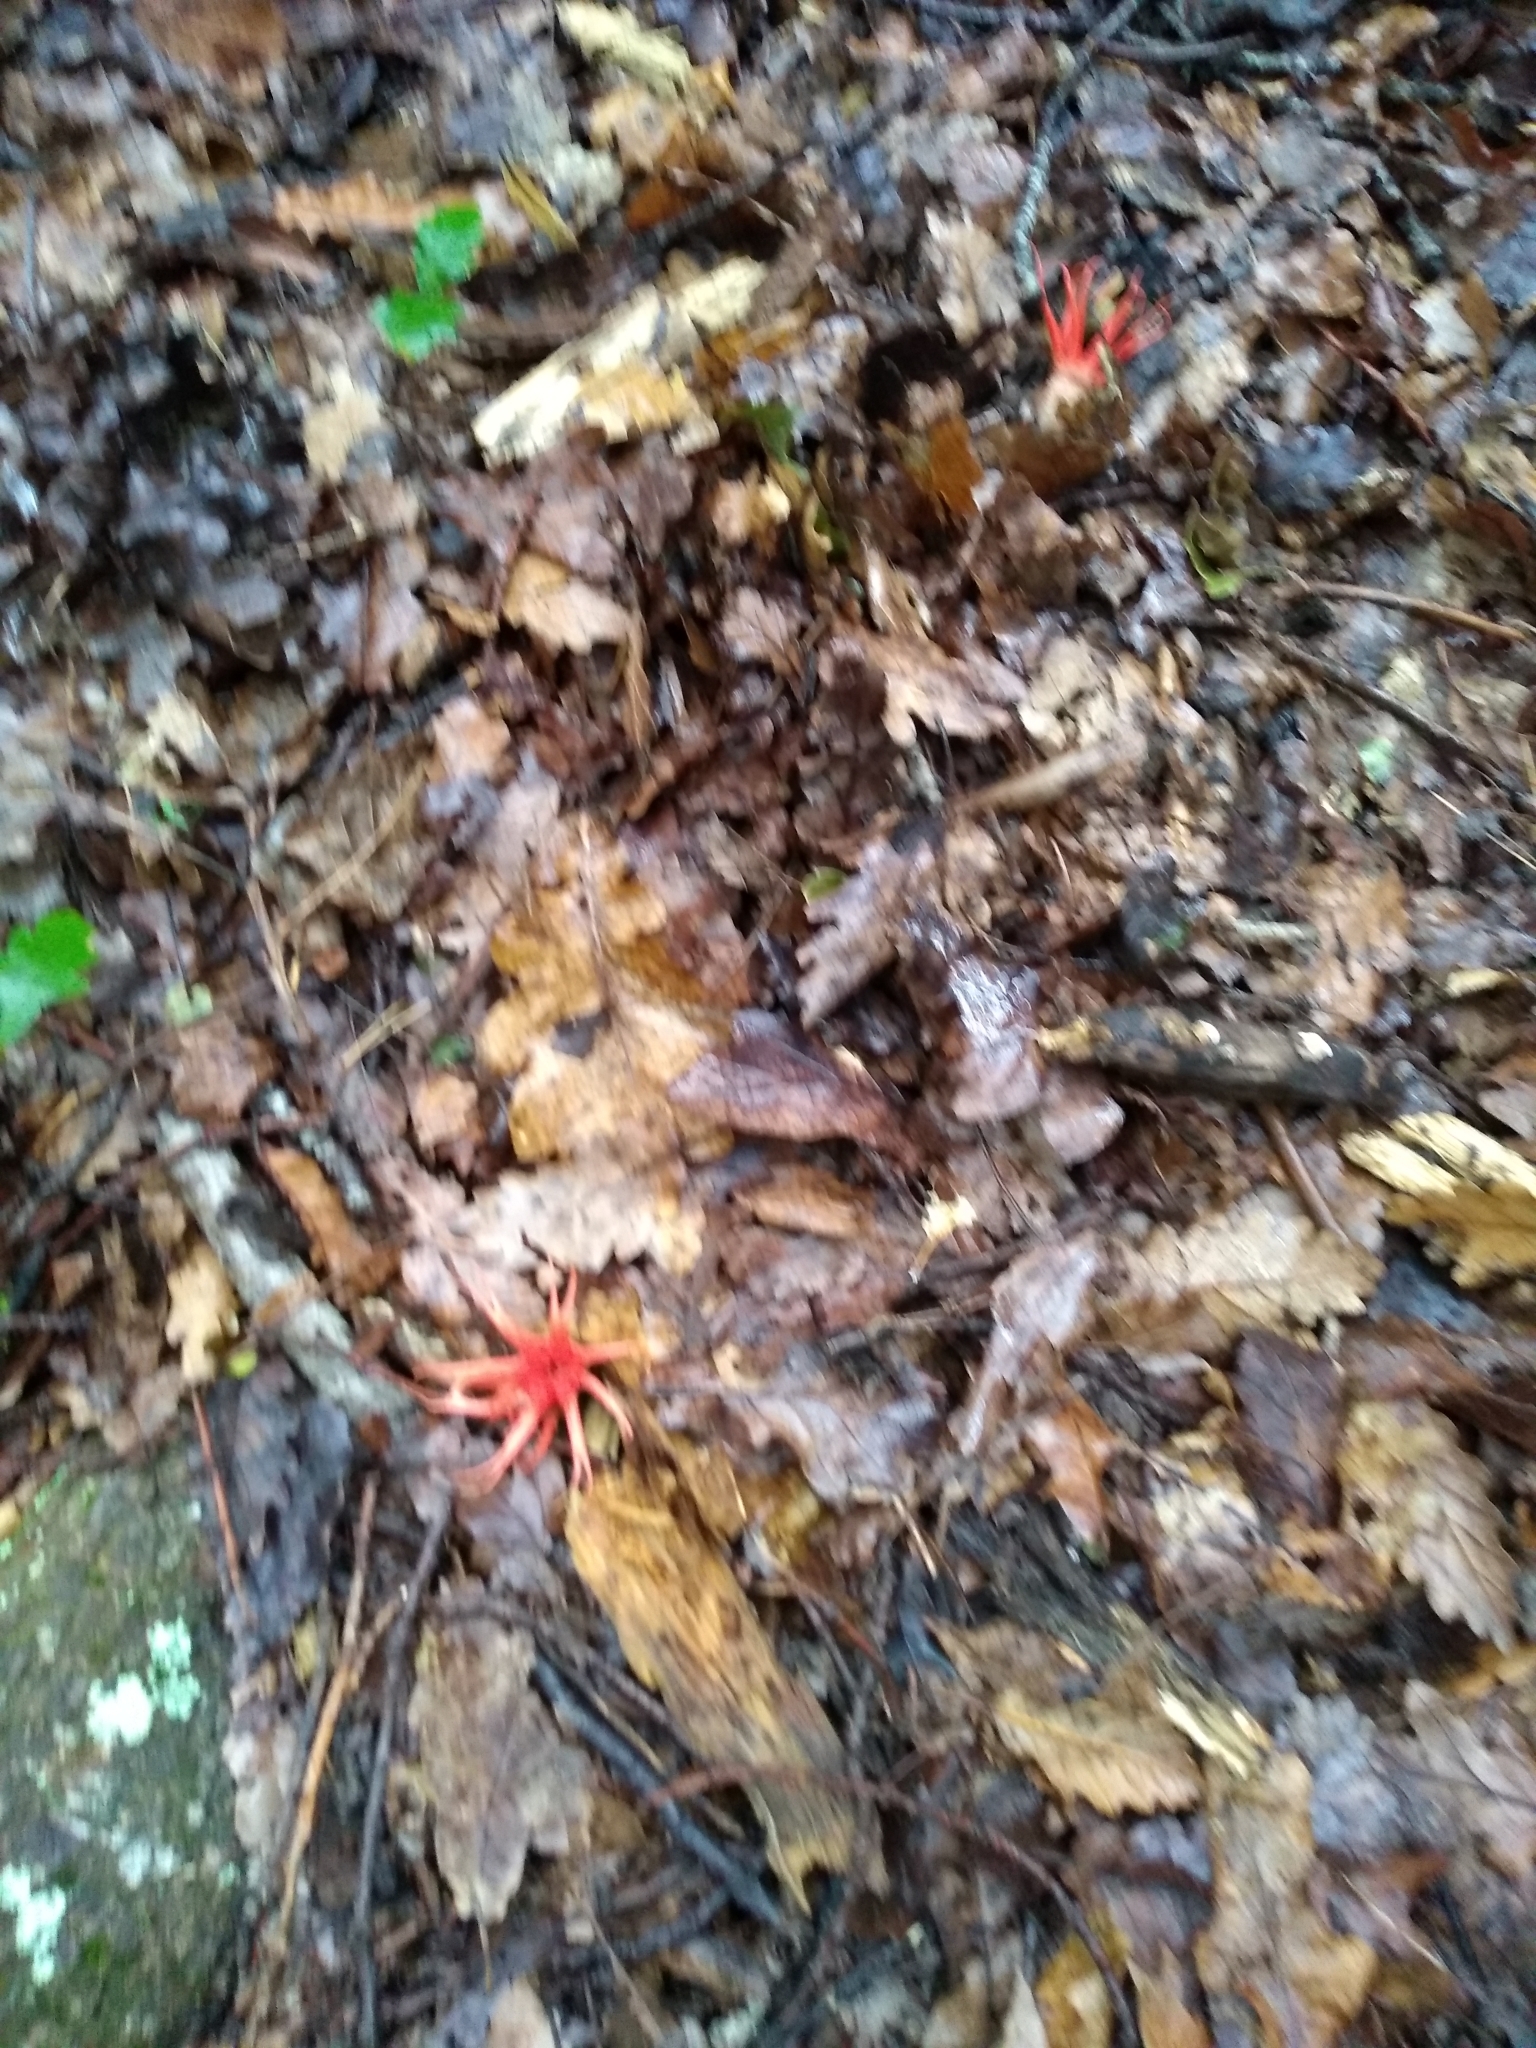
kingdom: Fungi
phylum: Basidiomycota
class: Agaricomycetes
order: Phallales
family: Phallaceae
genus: Aseroe
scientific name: Aseroe rubra
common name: Starfish fungus
